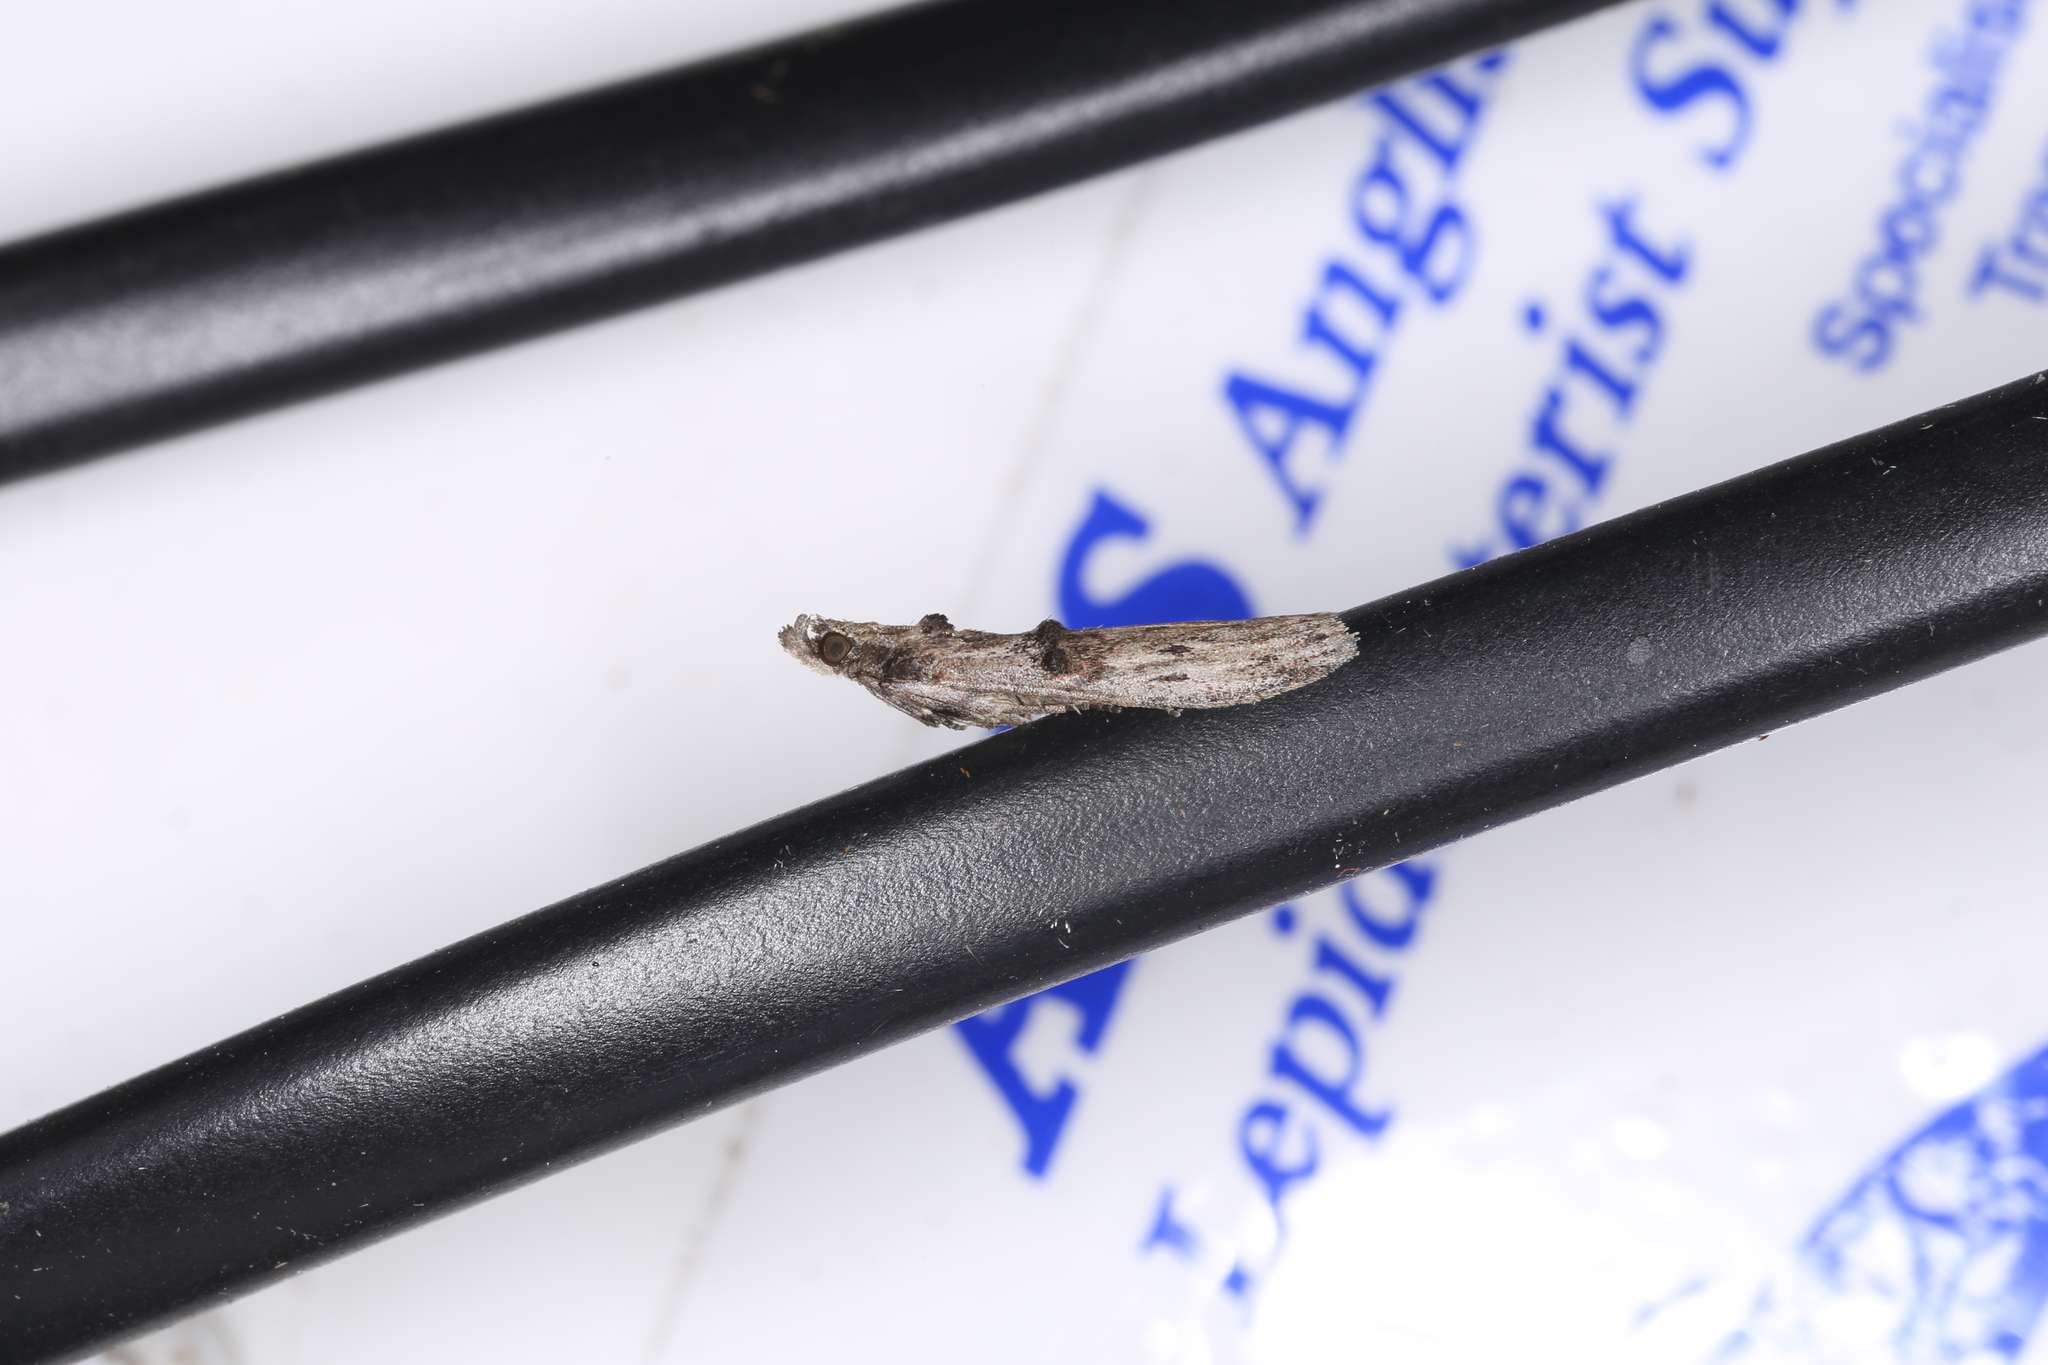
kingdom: Animalia
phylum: Arthropoda
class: Insecta
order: Lepidoptera
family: Pyralidae
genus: Nephopterix
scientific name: Nephopterix angustella
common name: Spindle knot-horn
